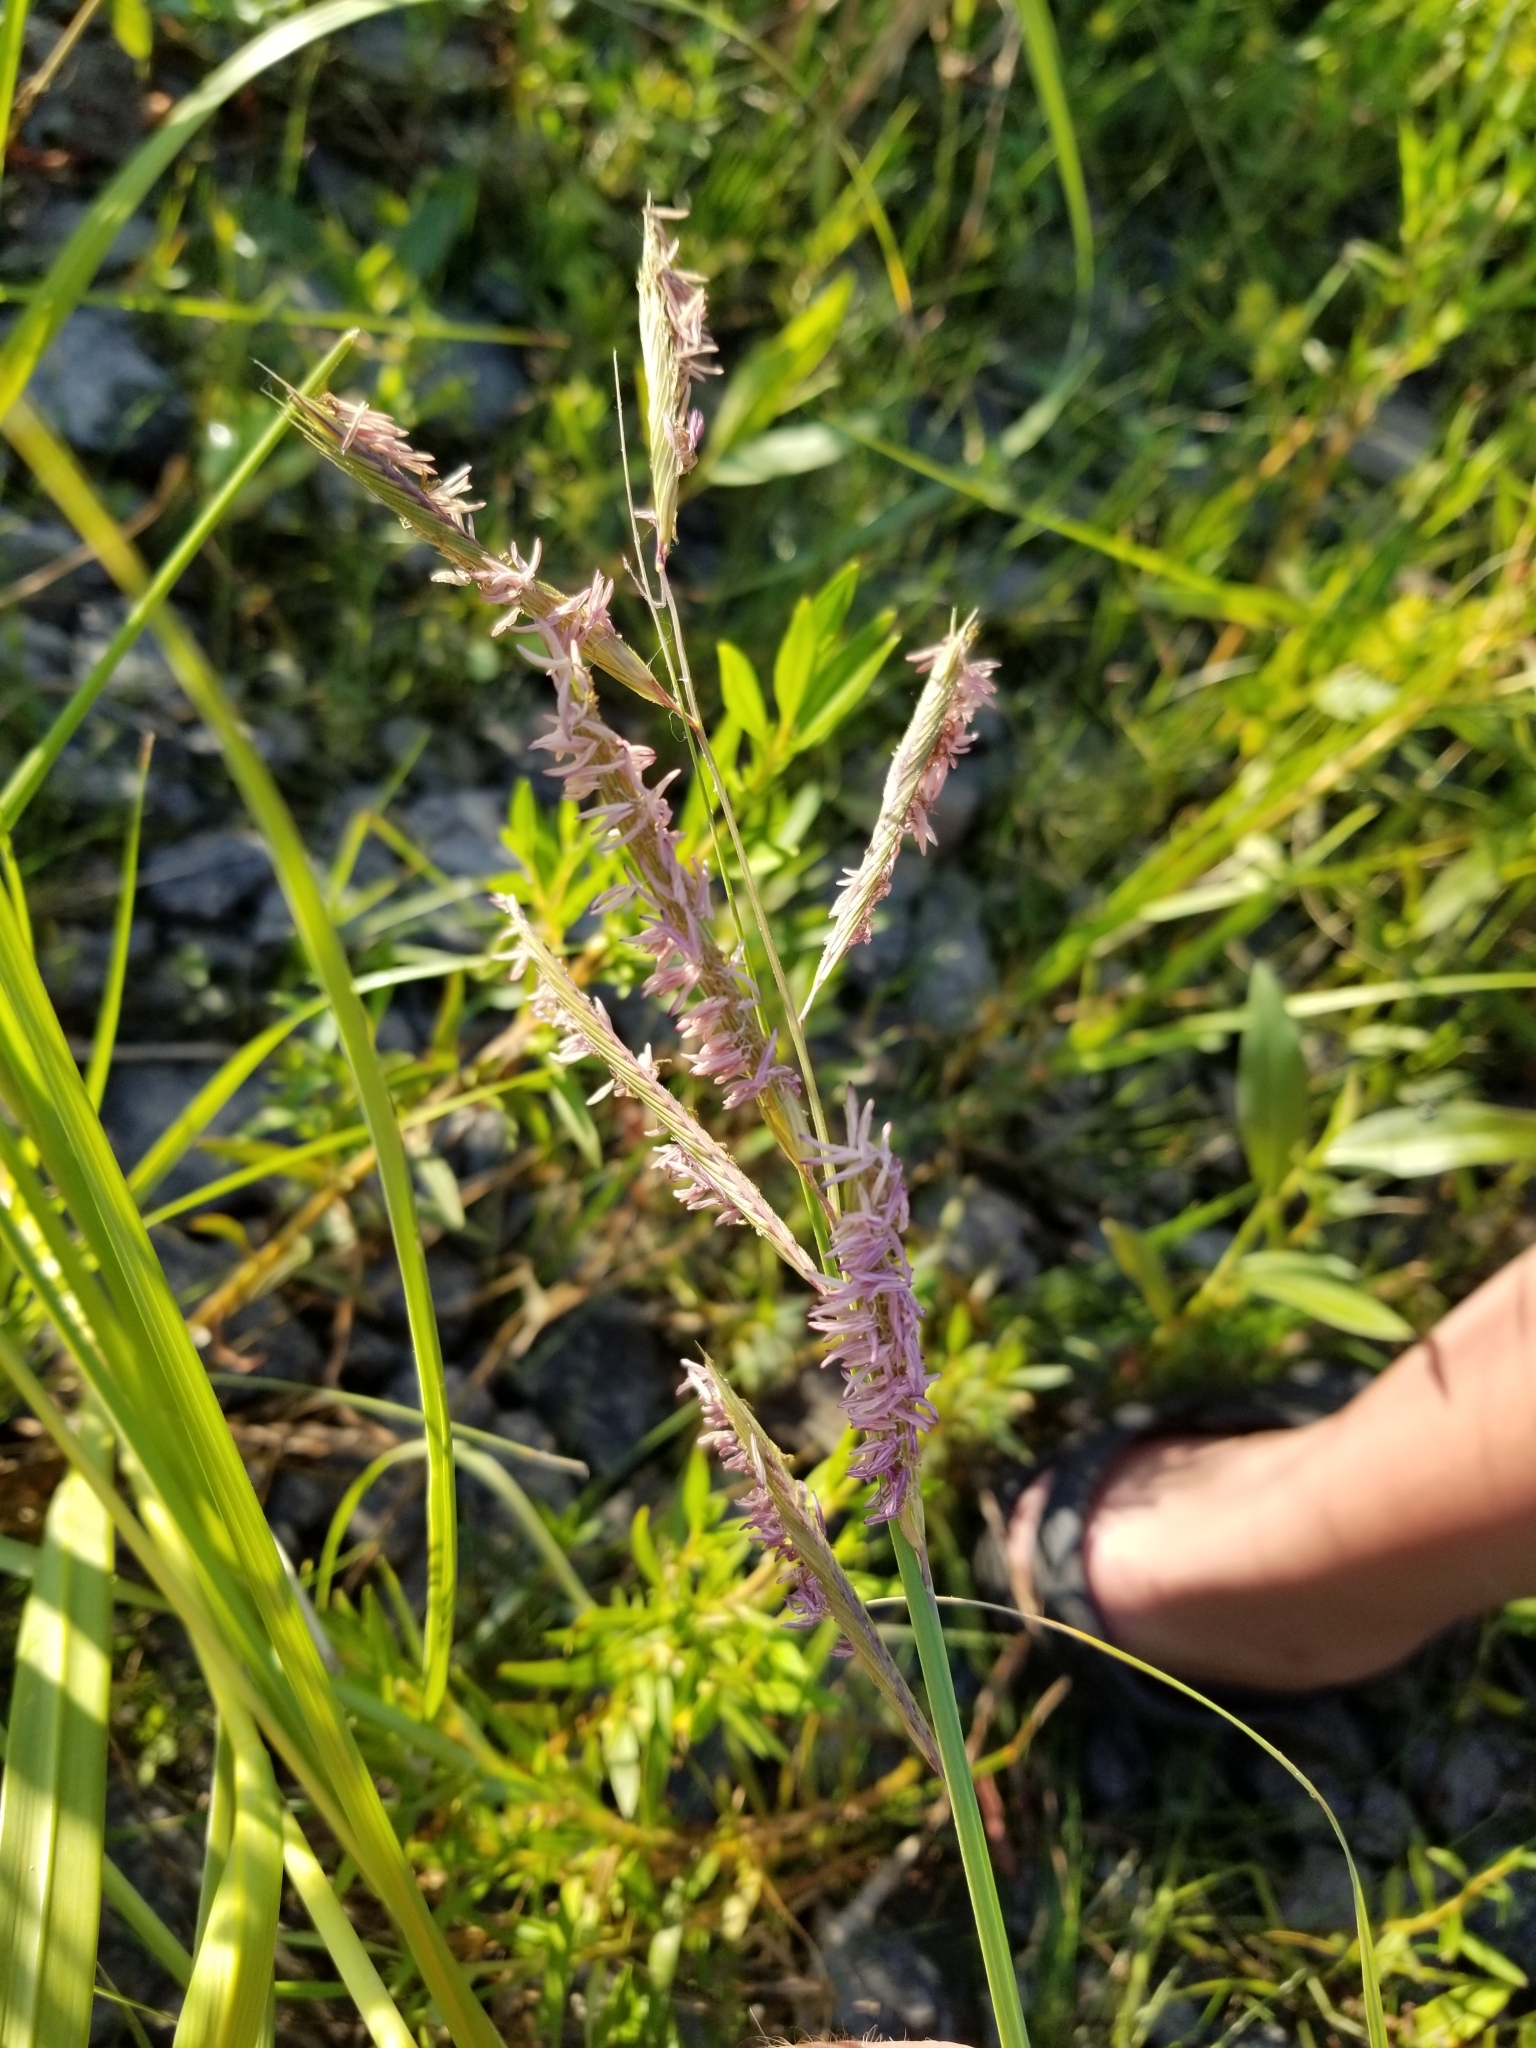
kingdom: Plantae
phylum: Tracheophyta
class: Liliopsida
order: Poales
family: Poaceae
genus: Sporobolus
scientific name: Sporobolus michauxianus
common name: Freshwater cordgrass
